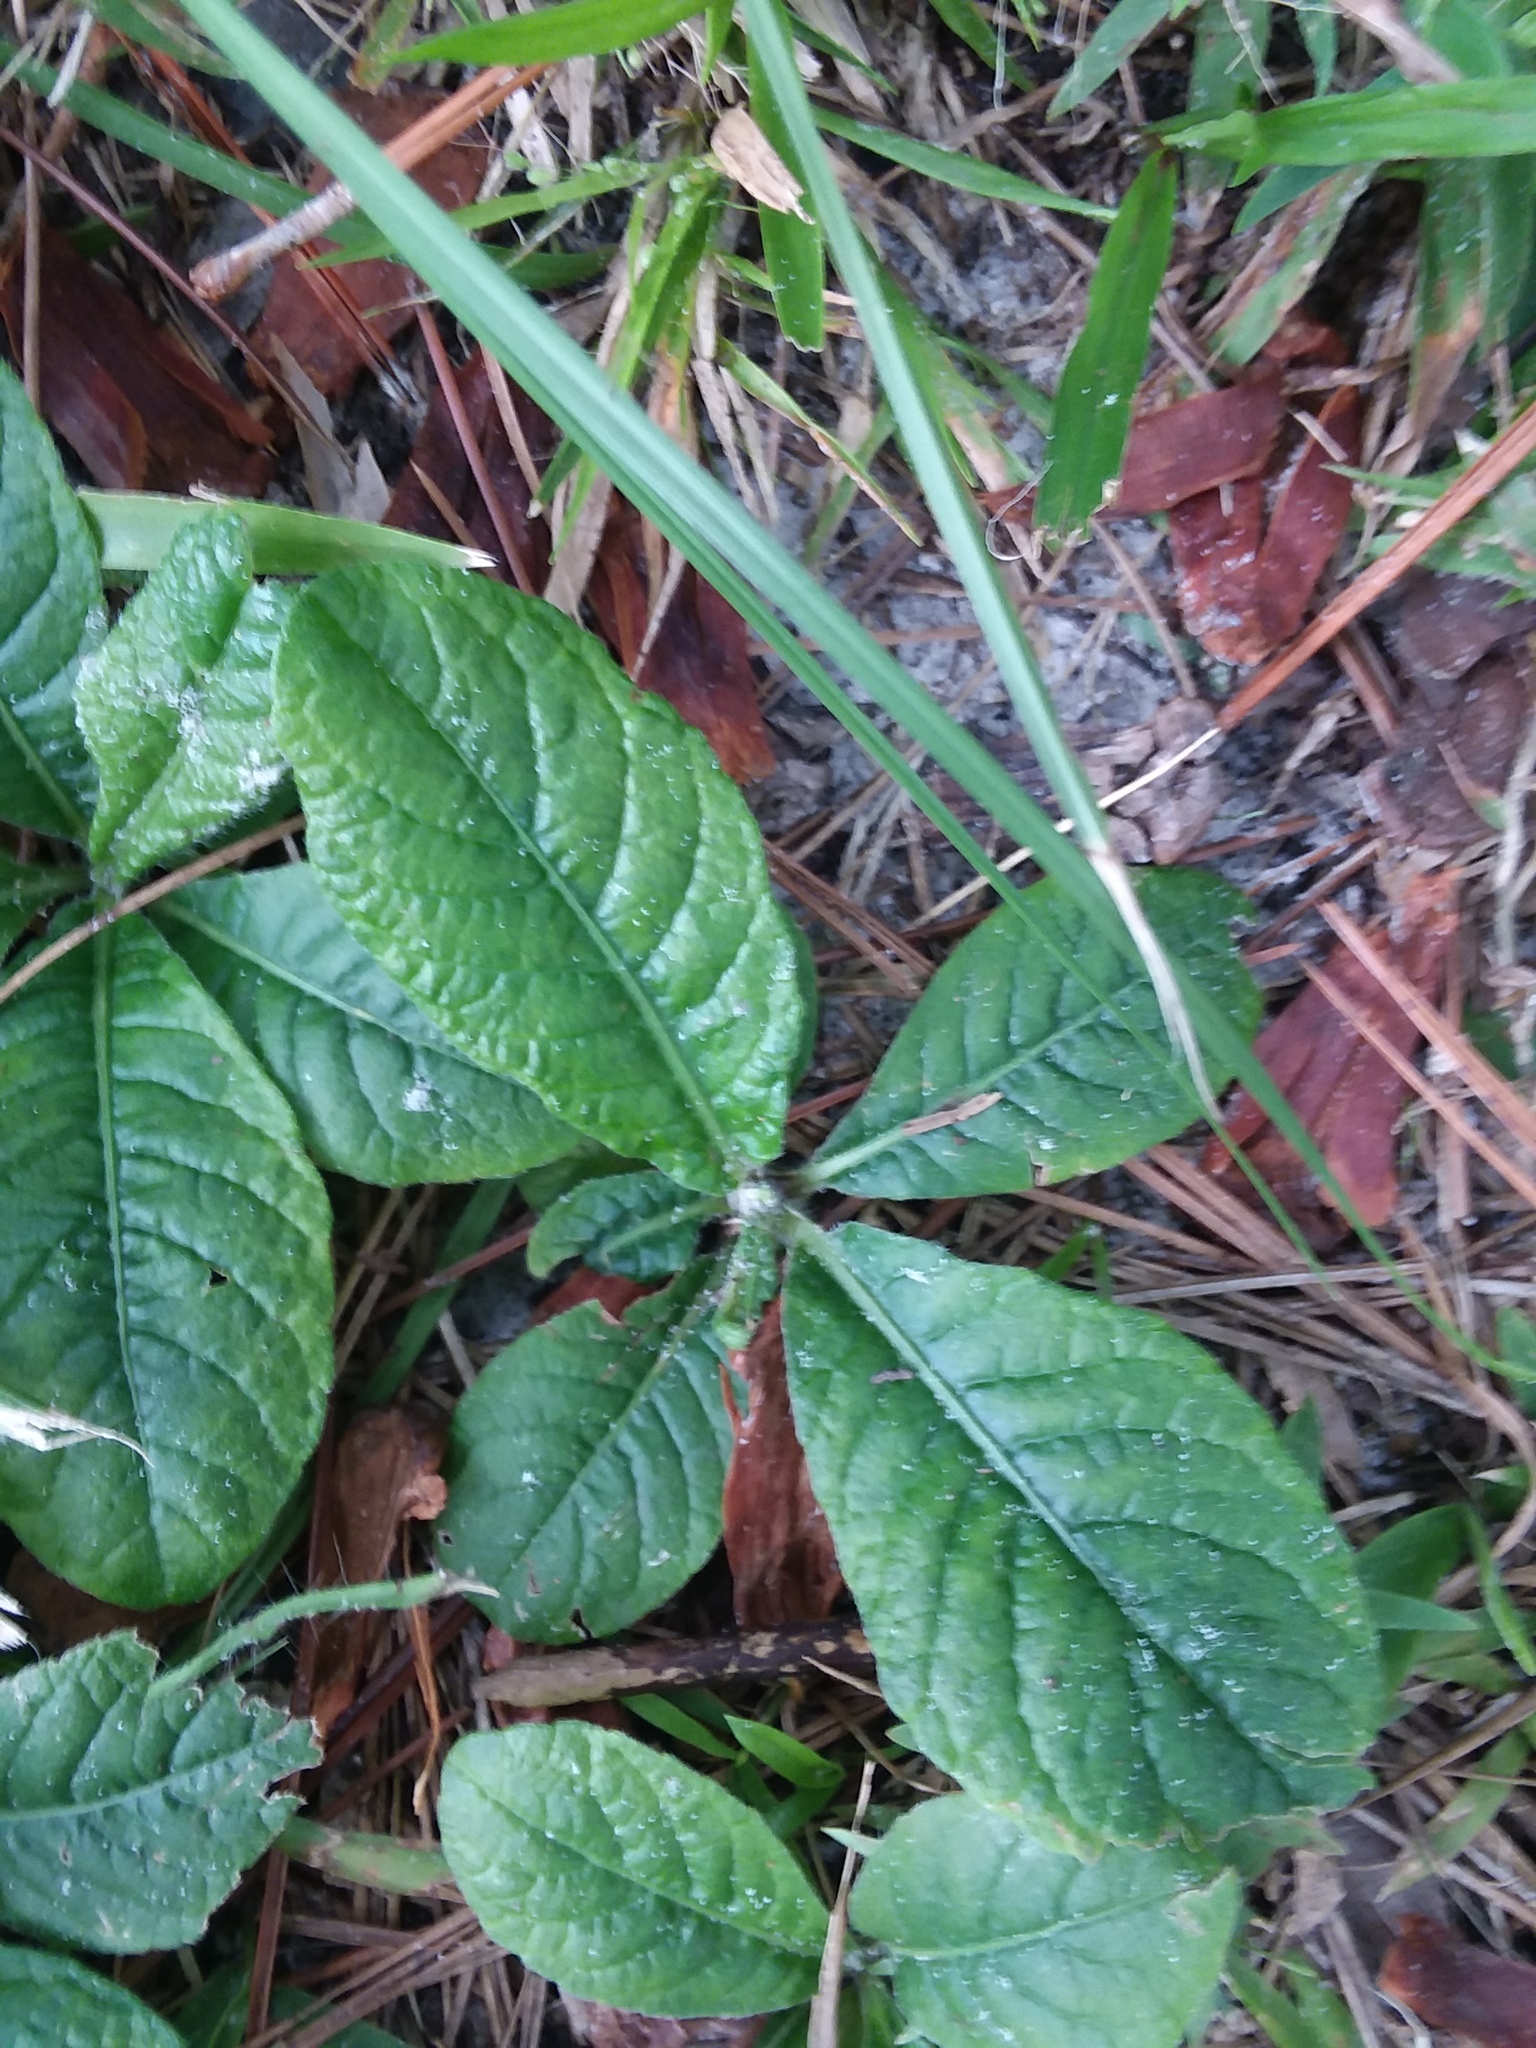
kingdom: Plantae
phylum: Tracheophyta
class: Magnoliopsida
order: Asterales
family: Asteraceae
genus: Elephantopus
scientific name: Elephantopus tomentosus
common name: Tobacco-weed
